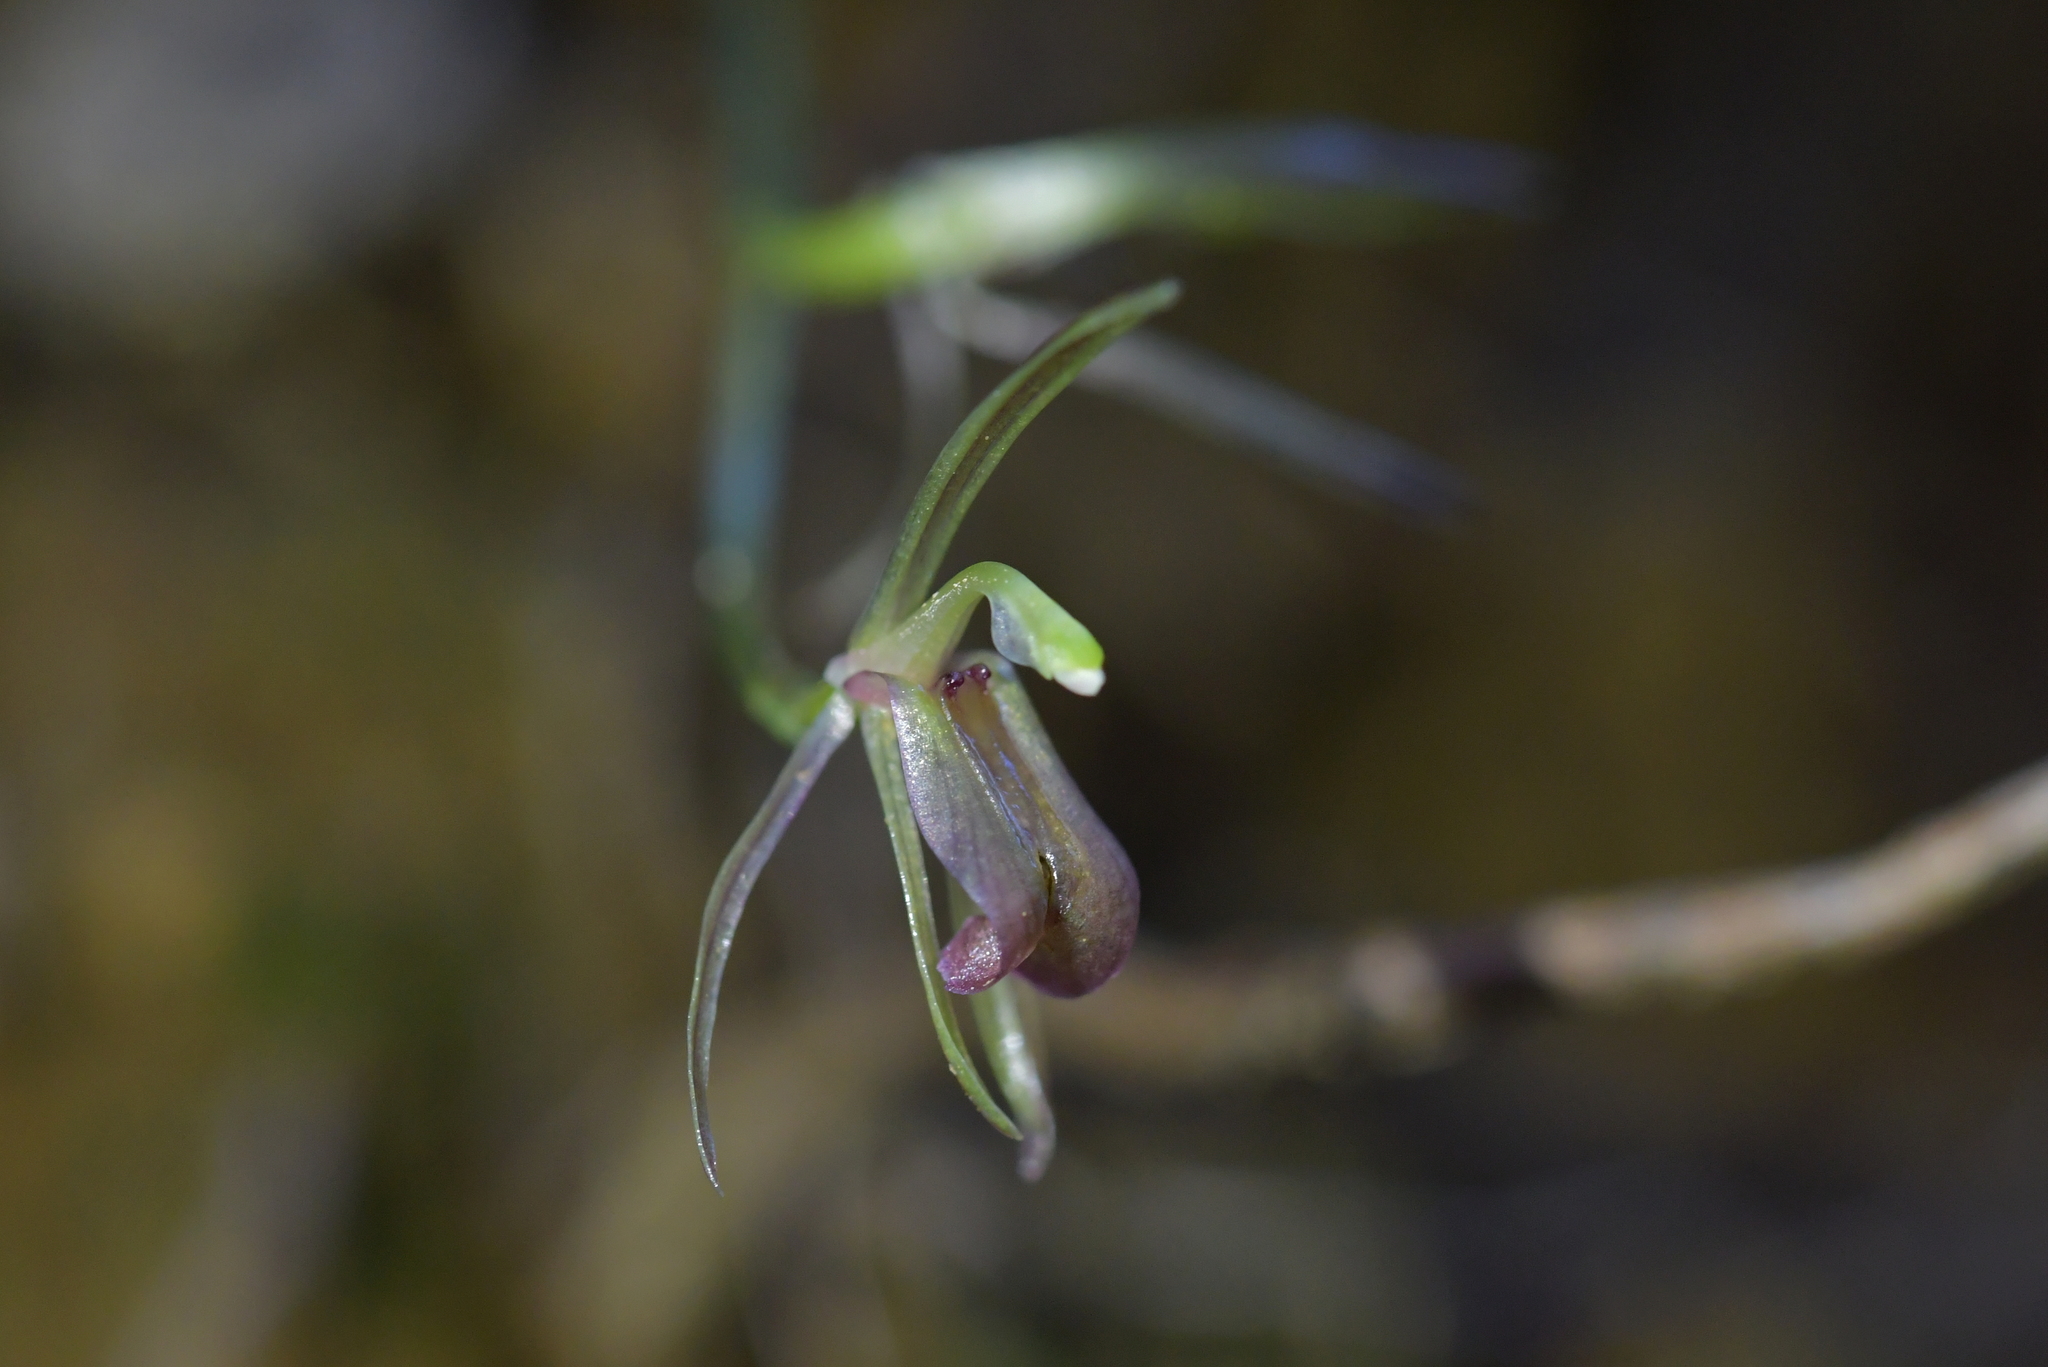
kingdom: Plantae
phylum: Tracheophyta
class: Liliopsida
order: Asparagales
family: Orchidaceae
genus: Cyrtostylis
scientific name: Cyrtostylis rotundifolia
